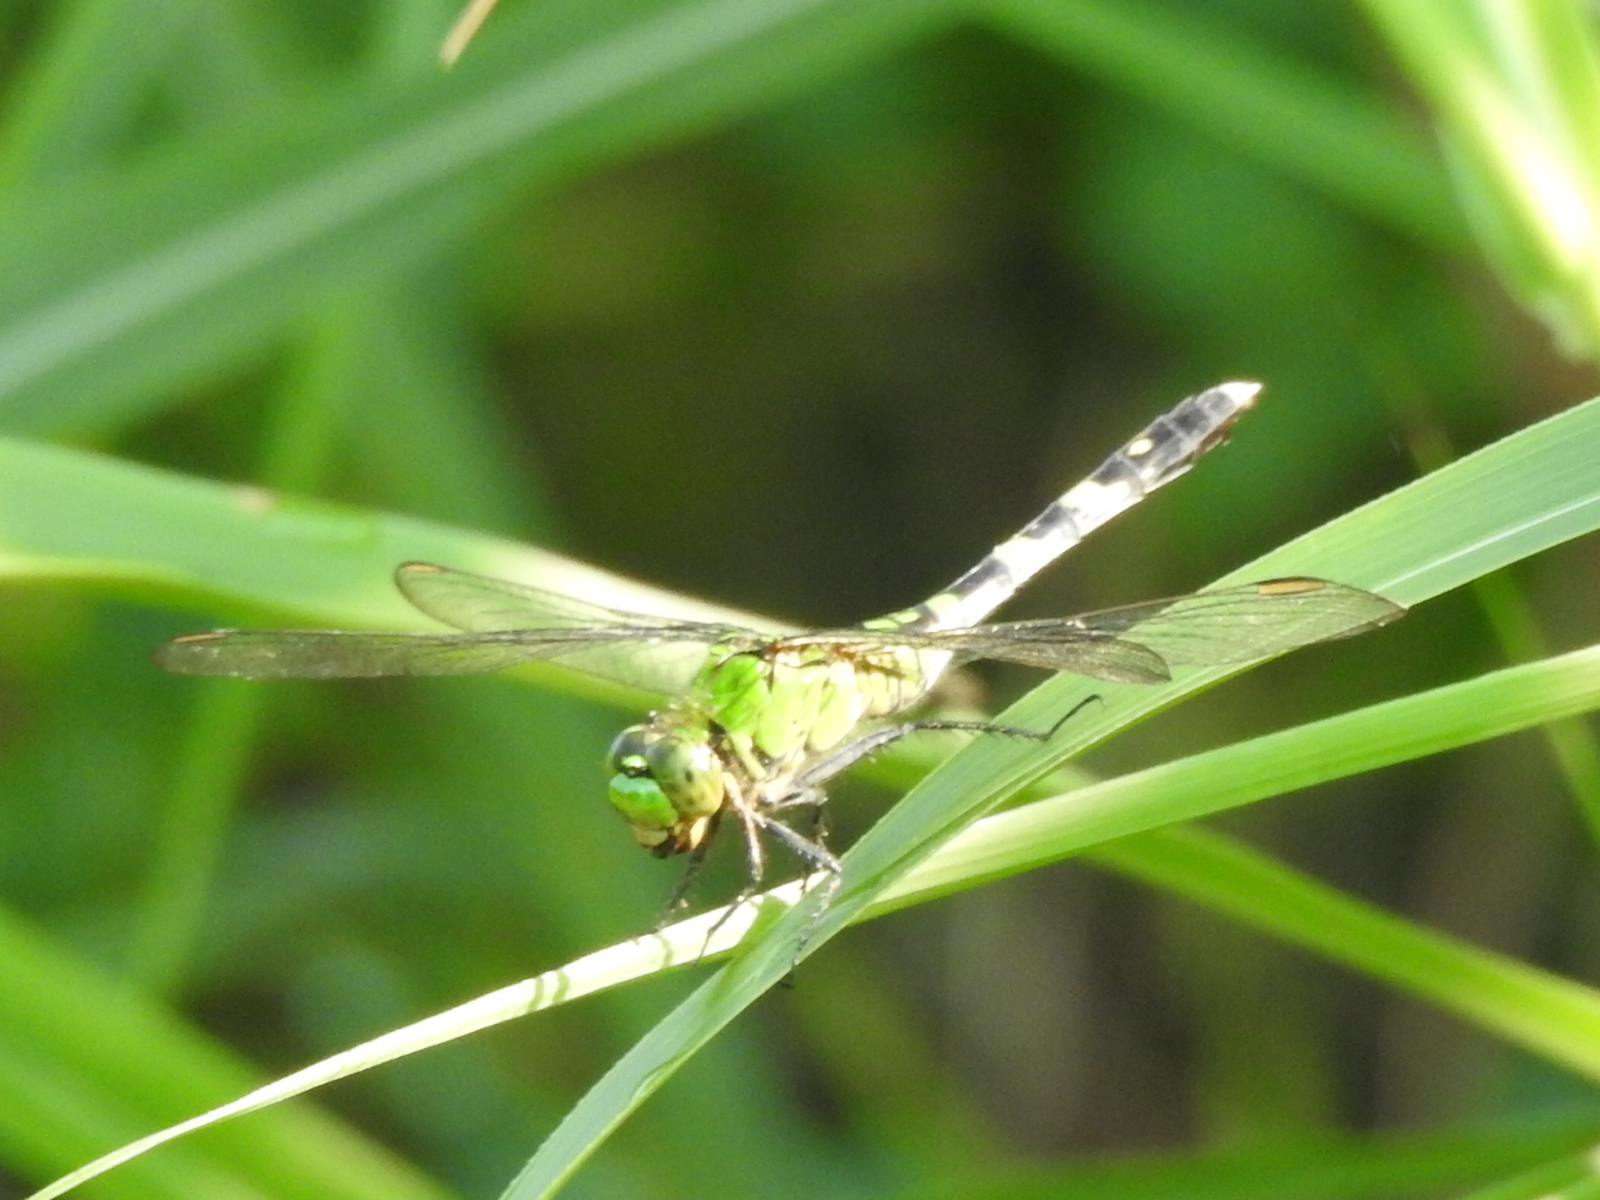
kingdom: Animalia
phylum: Arthropoda
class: Insecta
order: Odonata
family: Libellulidae
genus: Erythemis
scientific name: Erythemis simplicicollis
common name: Eastern pondhawk
